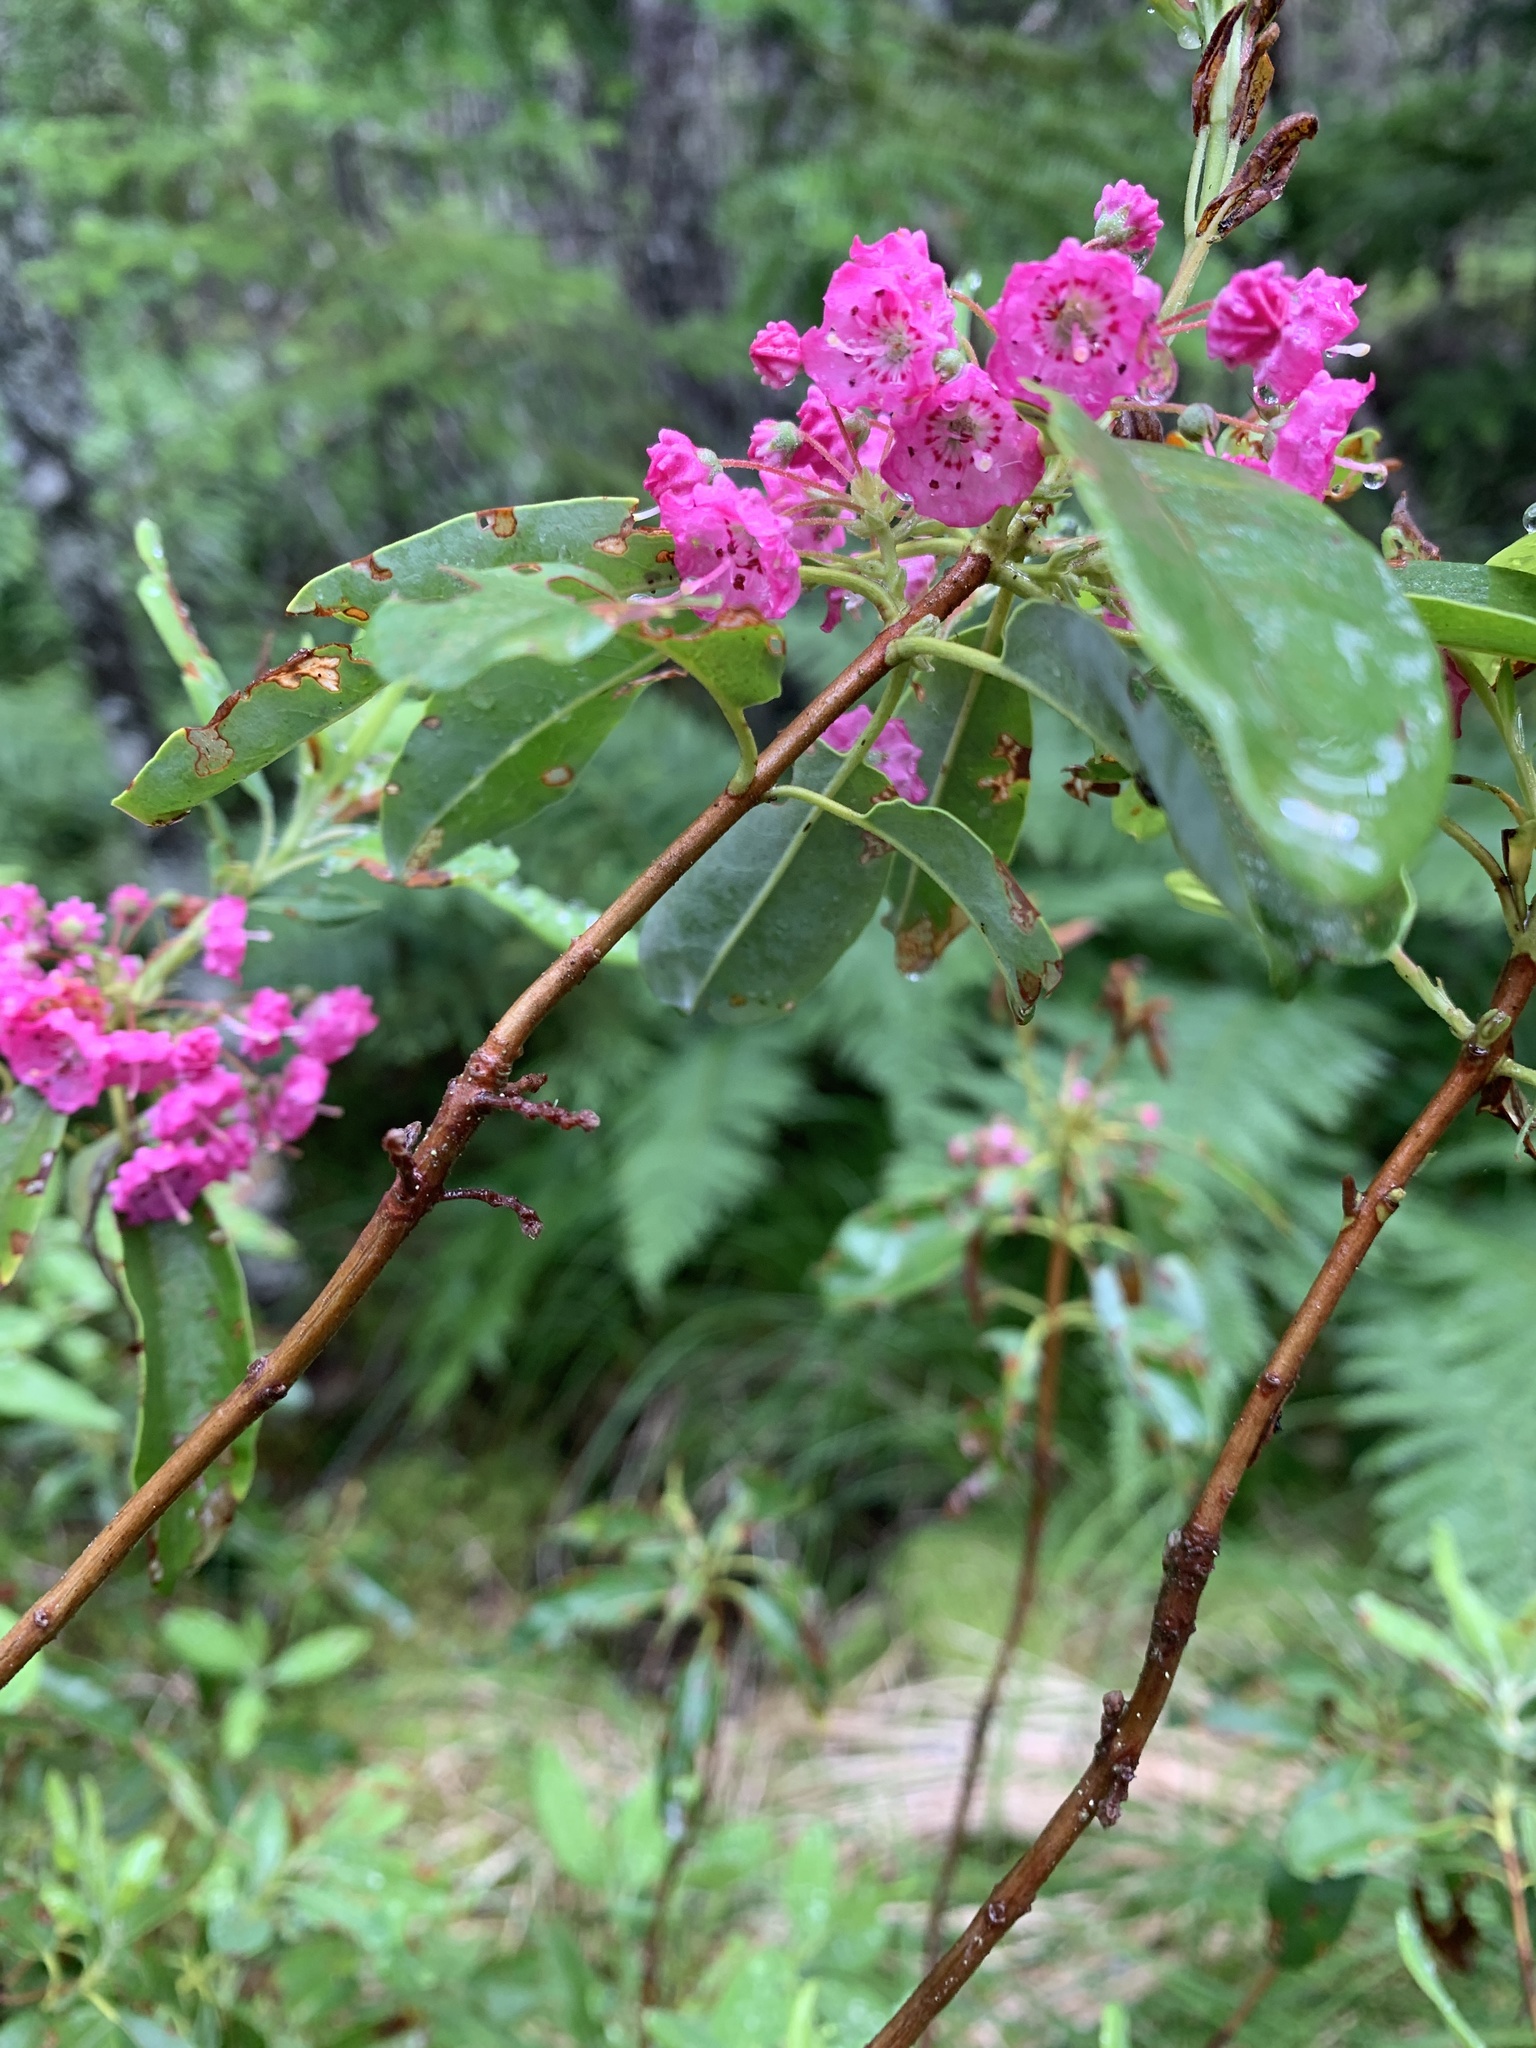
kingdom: Plantae
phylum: Tracheophyta
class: Magnoliopsida
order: Ericales
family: Ericaceae
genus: Kalmia
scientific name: Kalmia angustifolia
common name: Sheep-laurel
